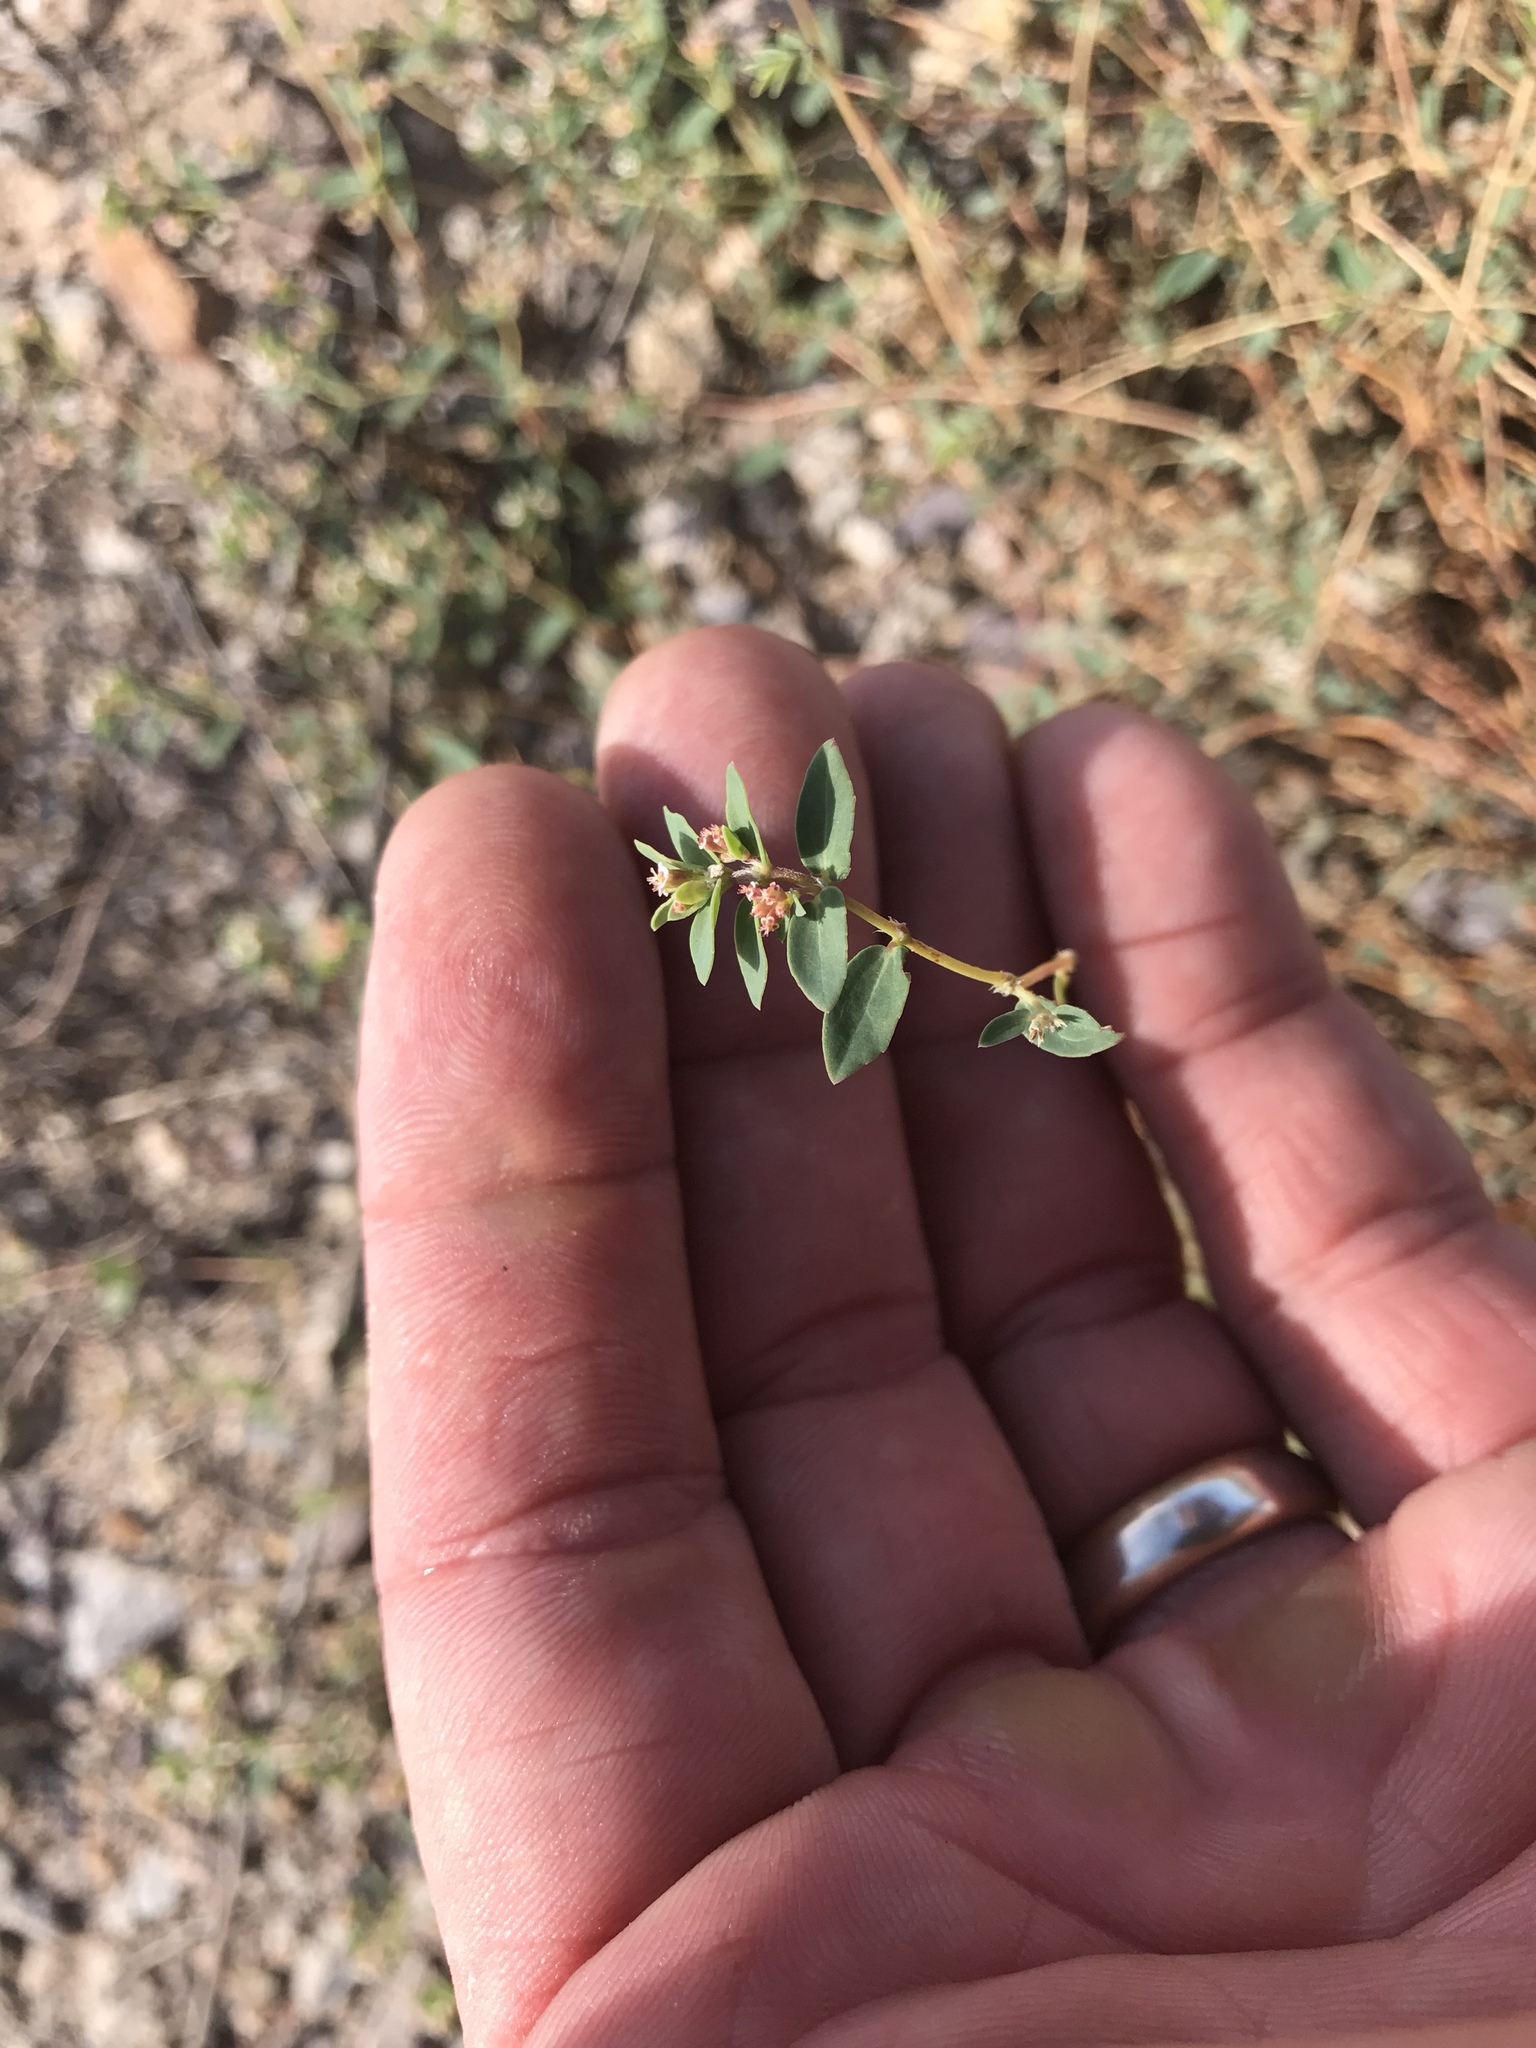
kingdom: Plantae
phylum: Tracheophyta
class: Magnoliopsida
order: Malpighiales
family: Euphorbiaceae
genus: Euphorbia
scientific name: Euphorbia capitellata
